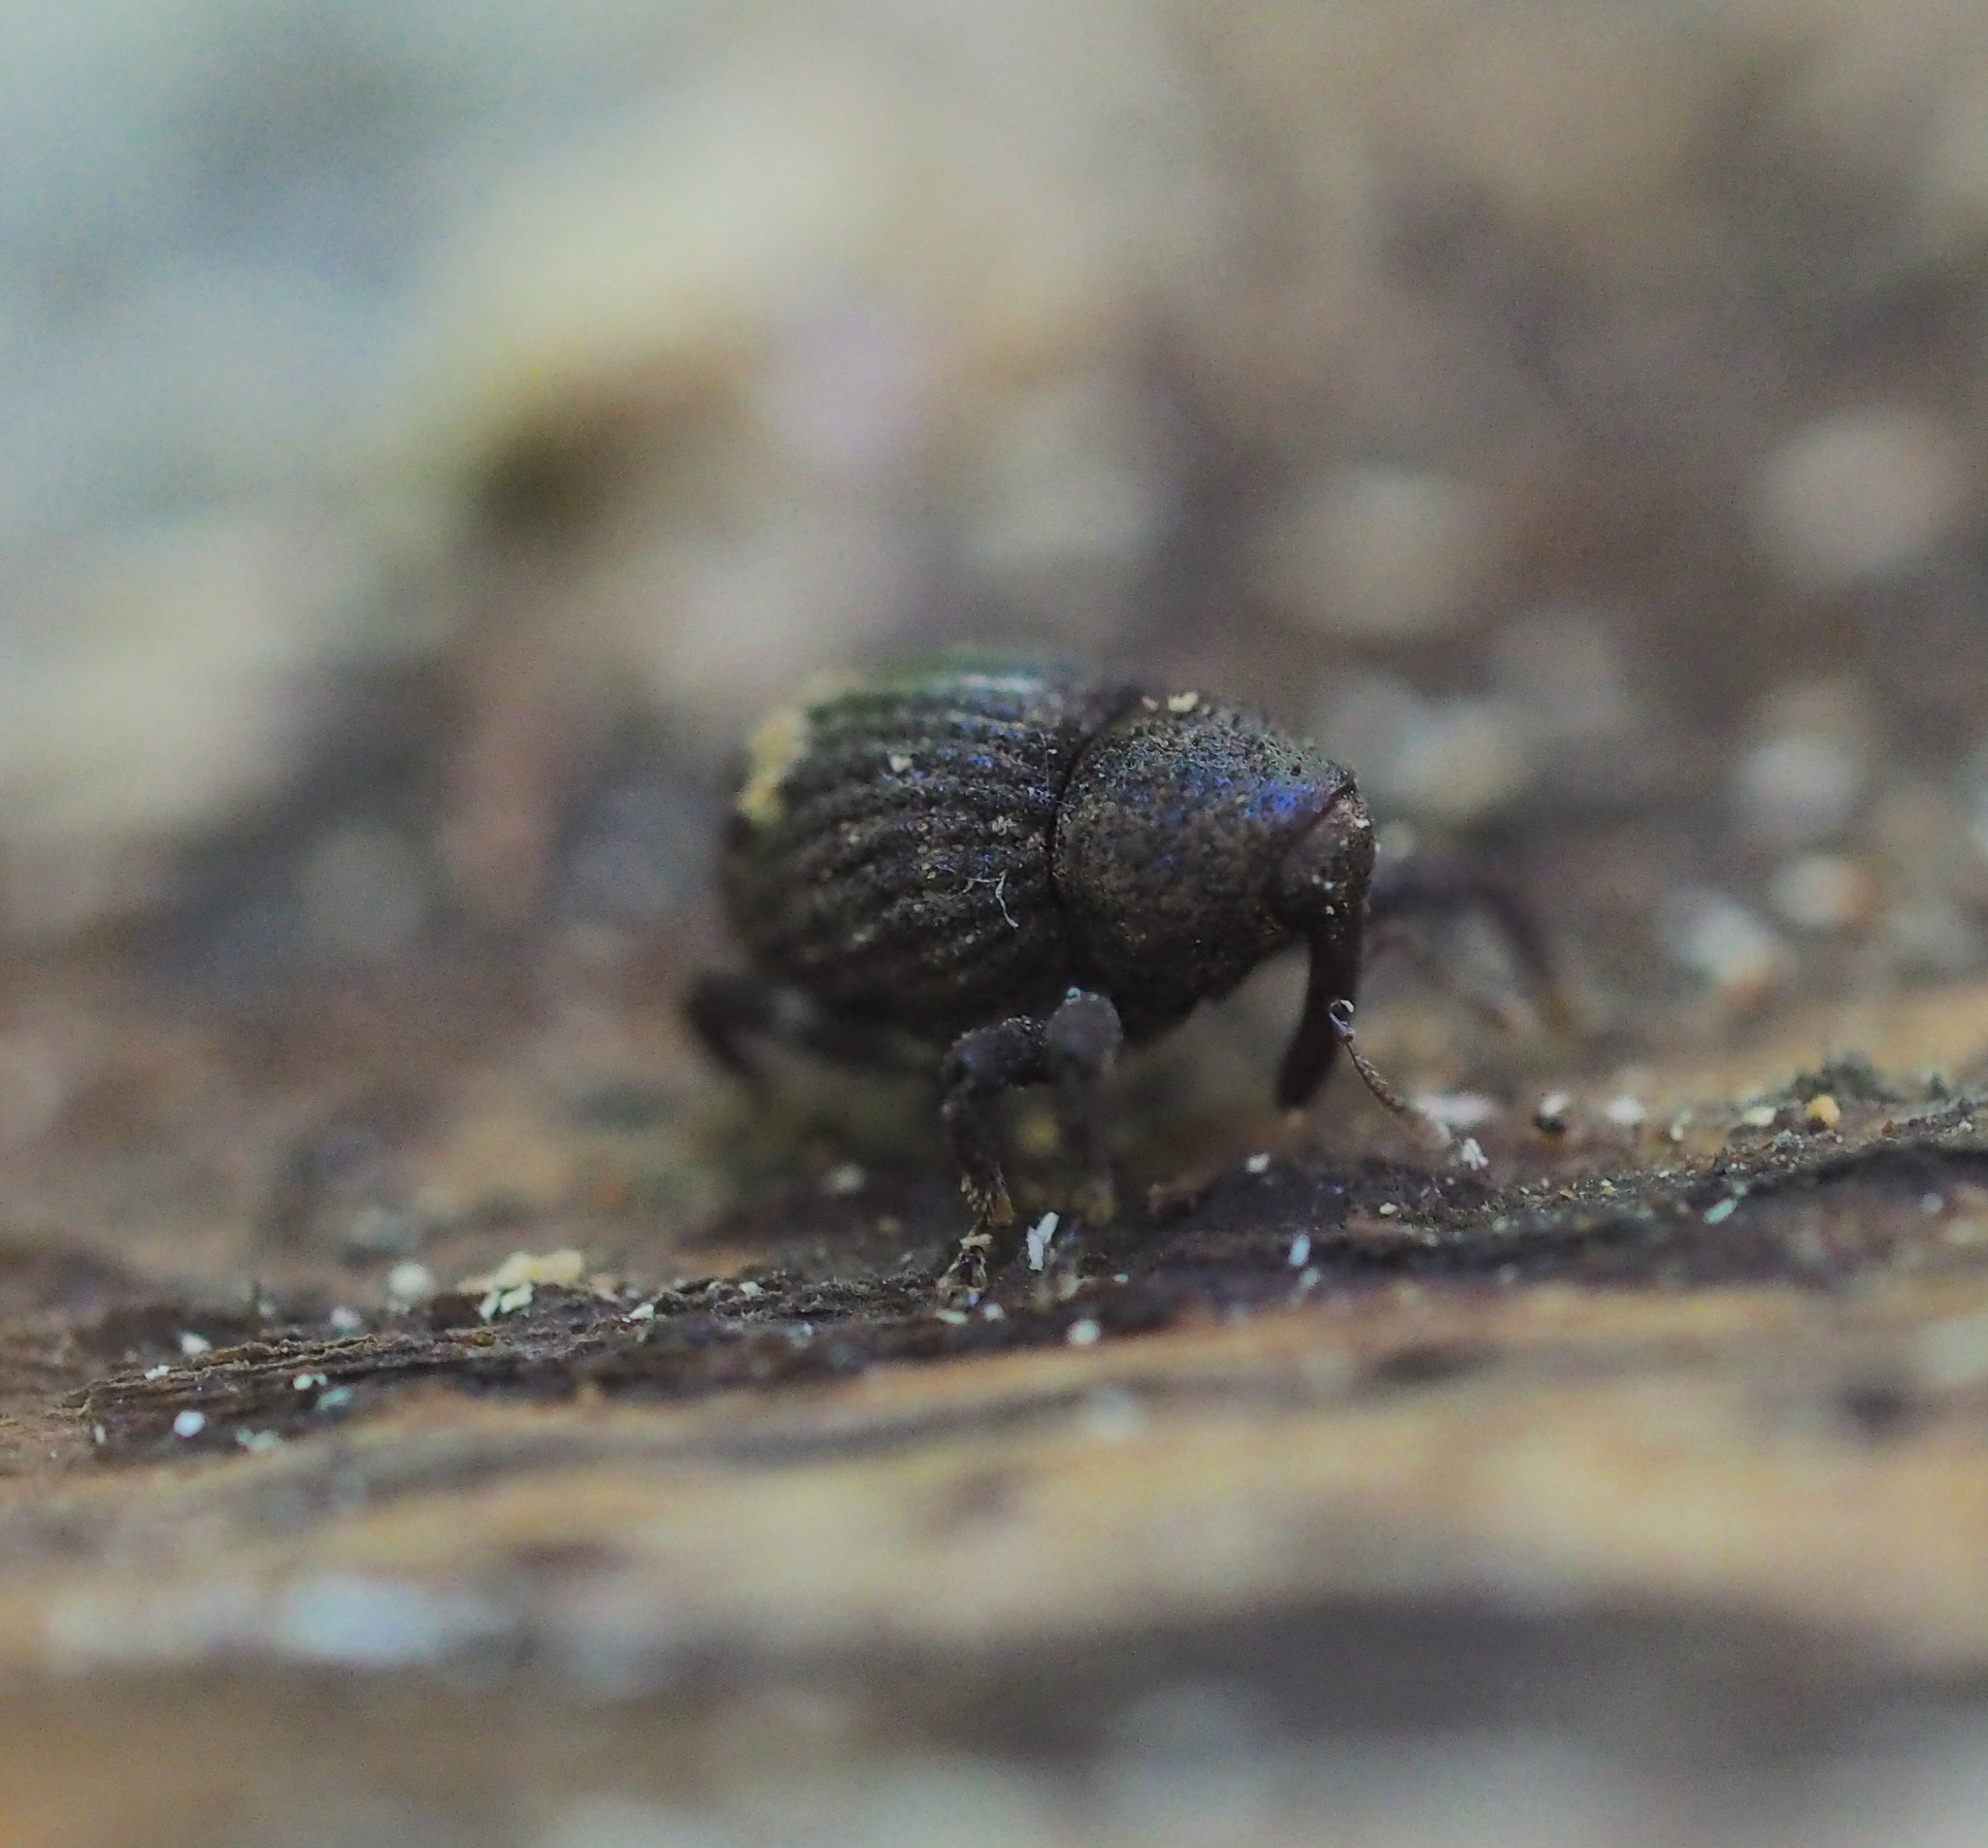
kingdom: Animalia
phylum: Arthropoda
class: Insecta
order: Coleoptera
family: Curculionidae
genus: Echinodera
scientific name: Echinodera hypocrita
